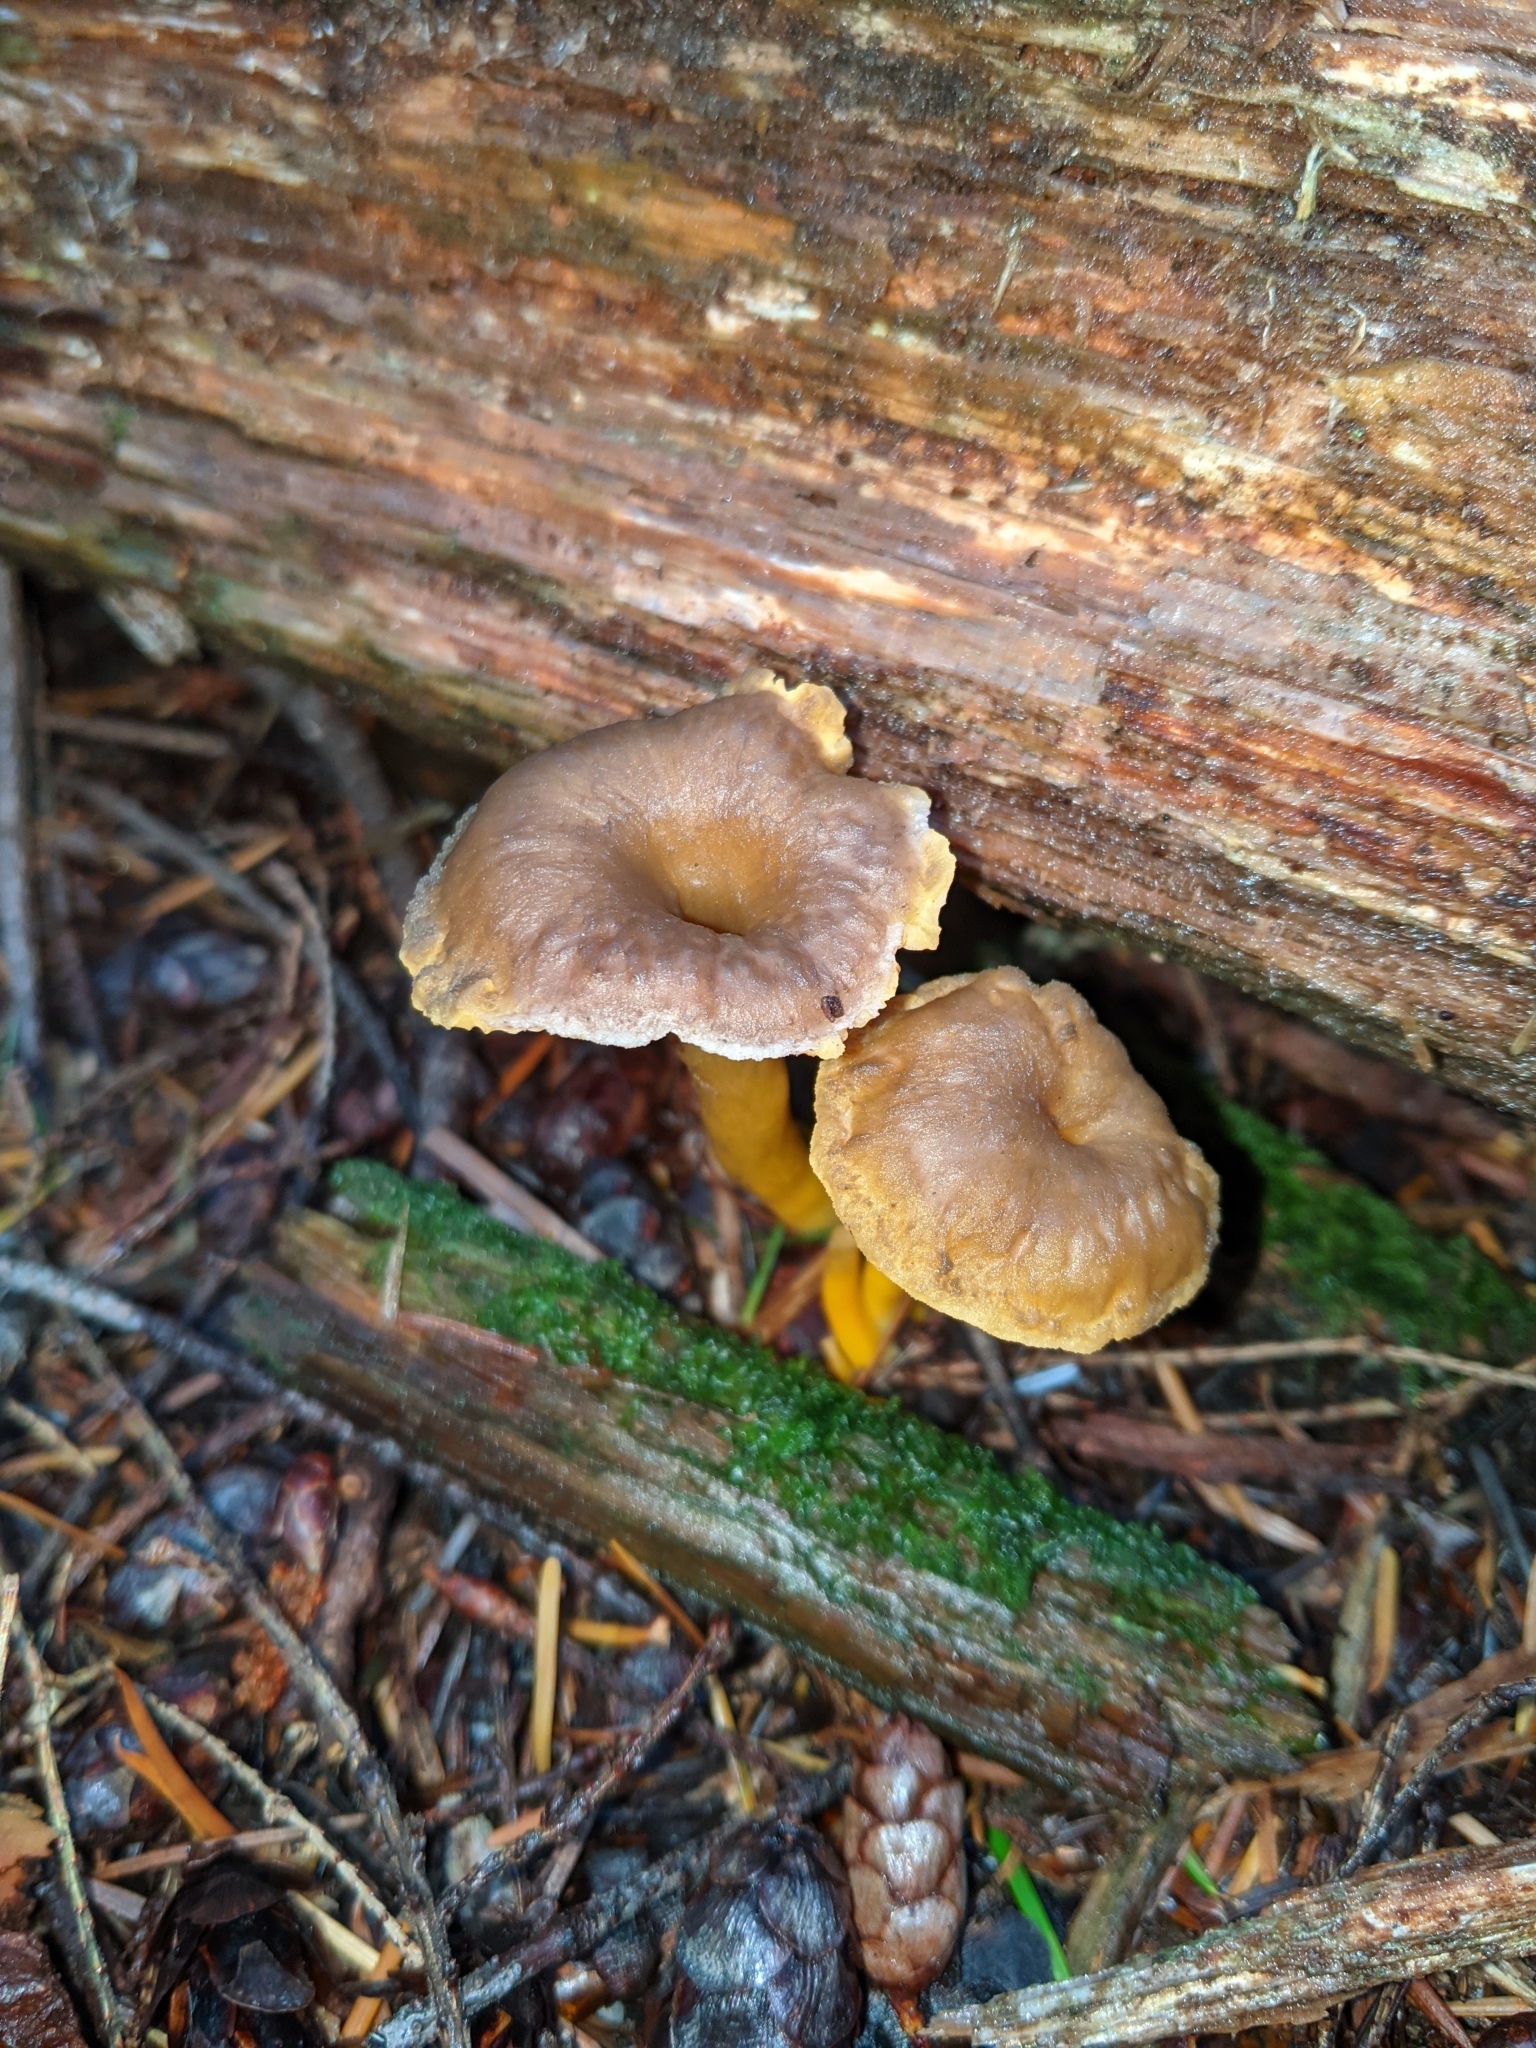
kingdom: Fungi
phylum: Basidiomycota
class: Agaricomycetes
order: Cantharellales
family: Hydnaceae
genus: Craterellus
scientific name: Craterellus tubaeformis
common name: Yellowfoot
